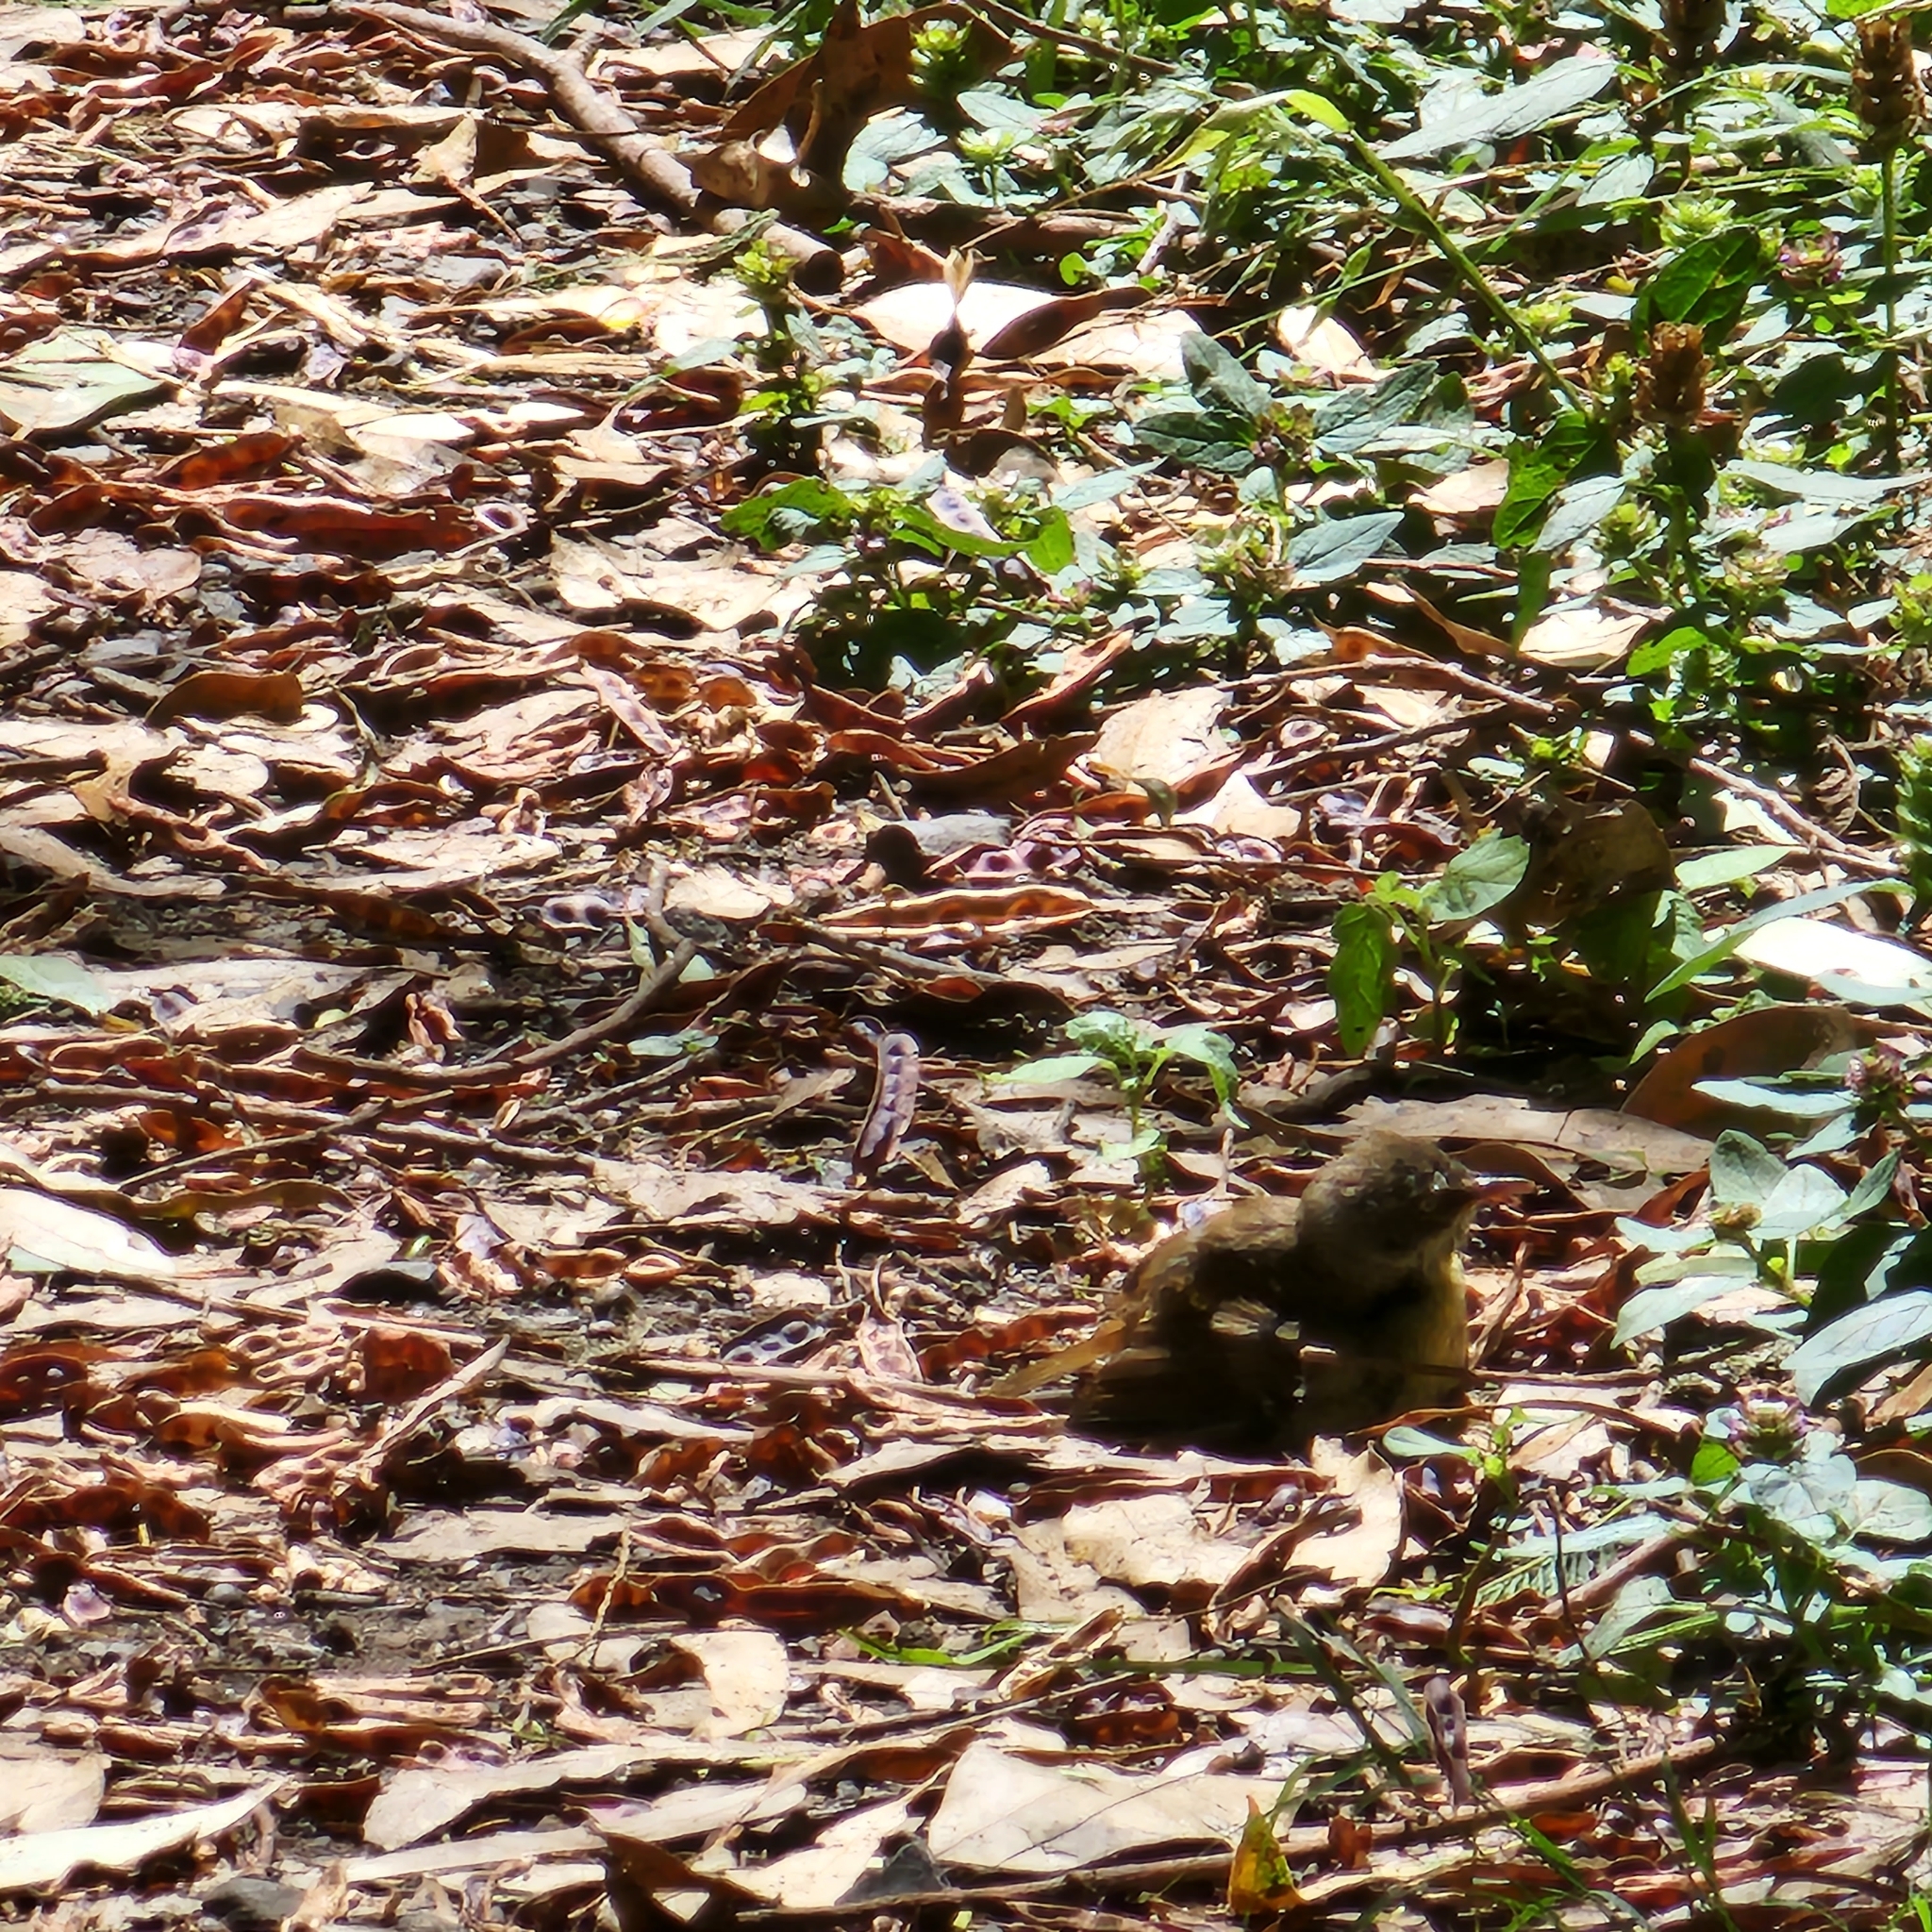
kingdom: Animalia
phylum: Chordata
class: Aves
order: Passeriformes
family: Acanthizidae
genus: Sericornis
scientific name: Sericornis frontalis
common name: White-browed scrubwren
